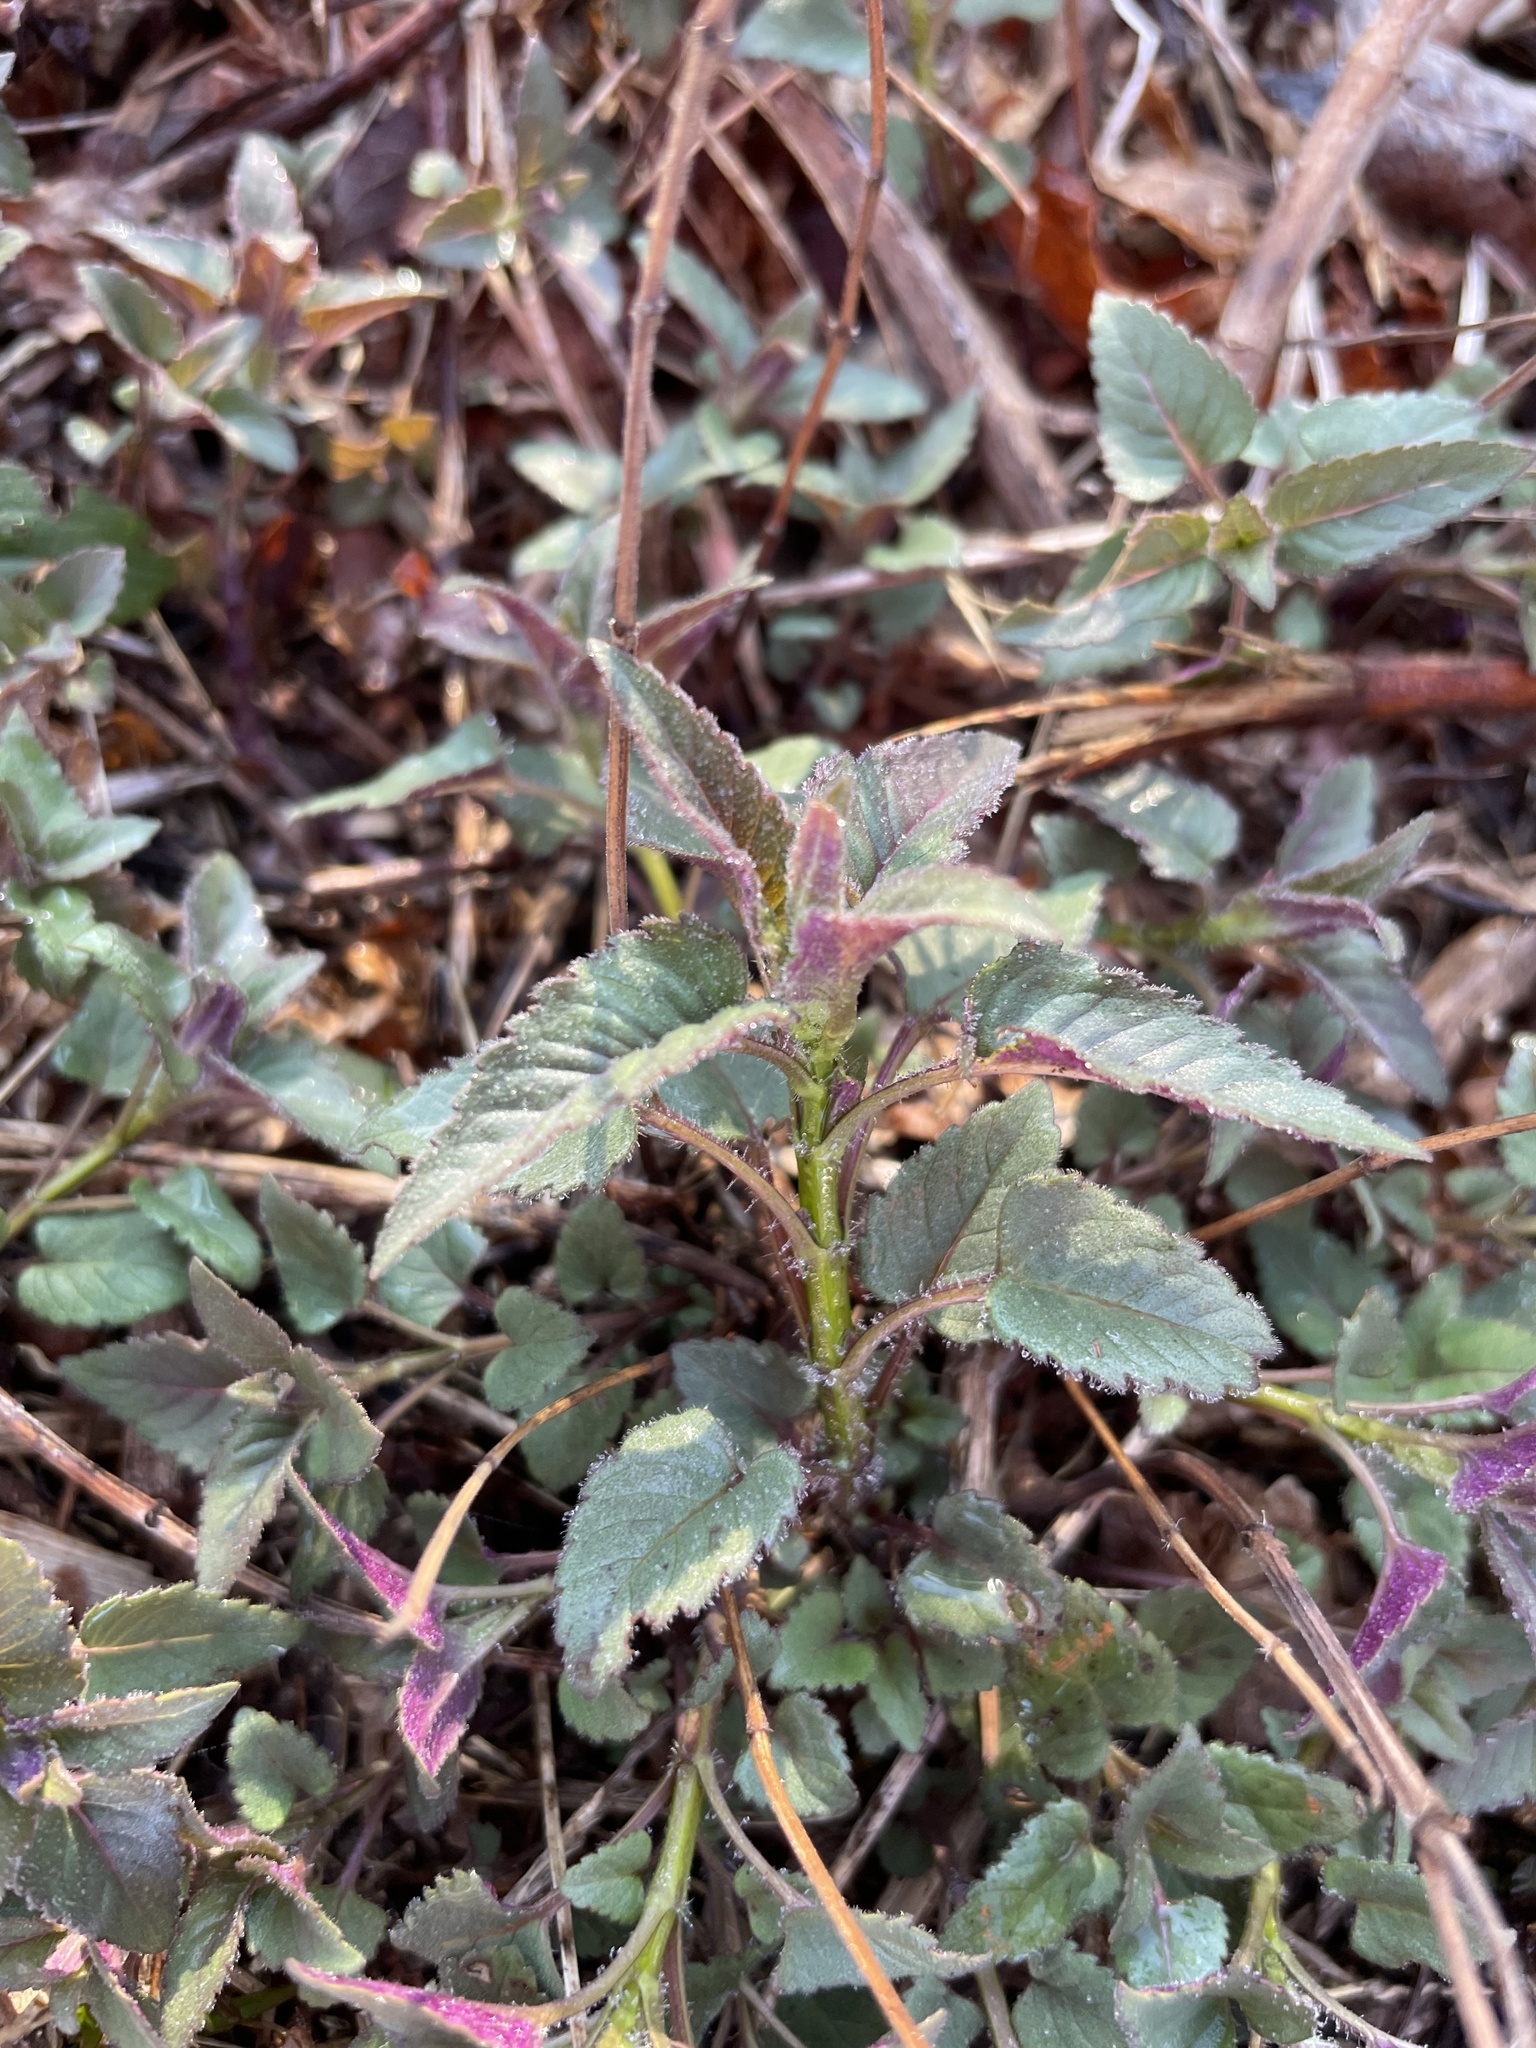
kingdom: Plantae
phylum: Tracheophyta
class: Magnoliopsida
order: Lamiales
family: Lamiaceae
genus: Monarda
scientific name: Monarda fistulosa
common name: Purple beebalm
